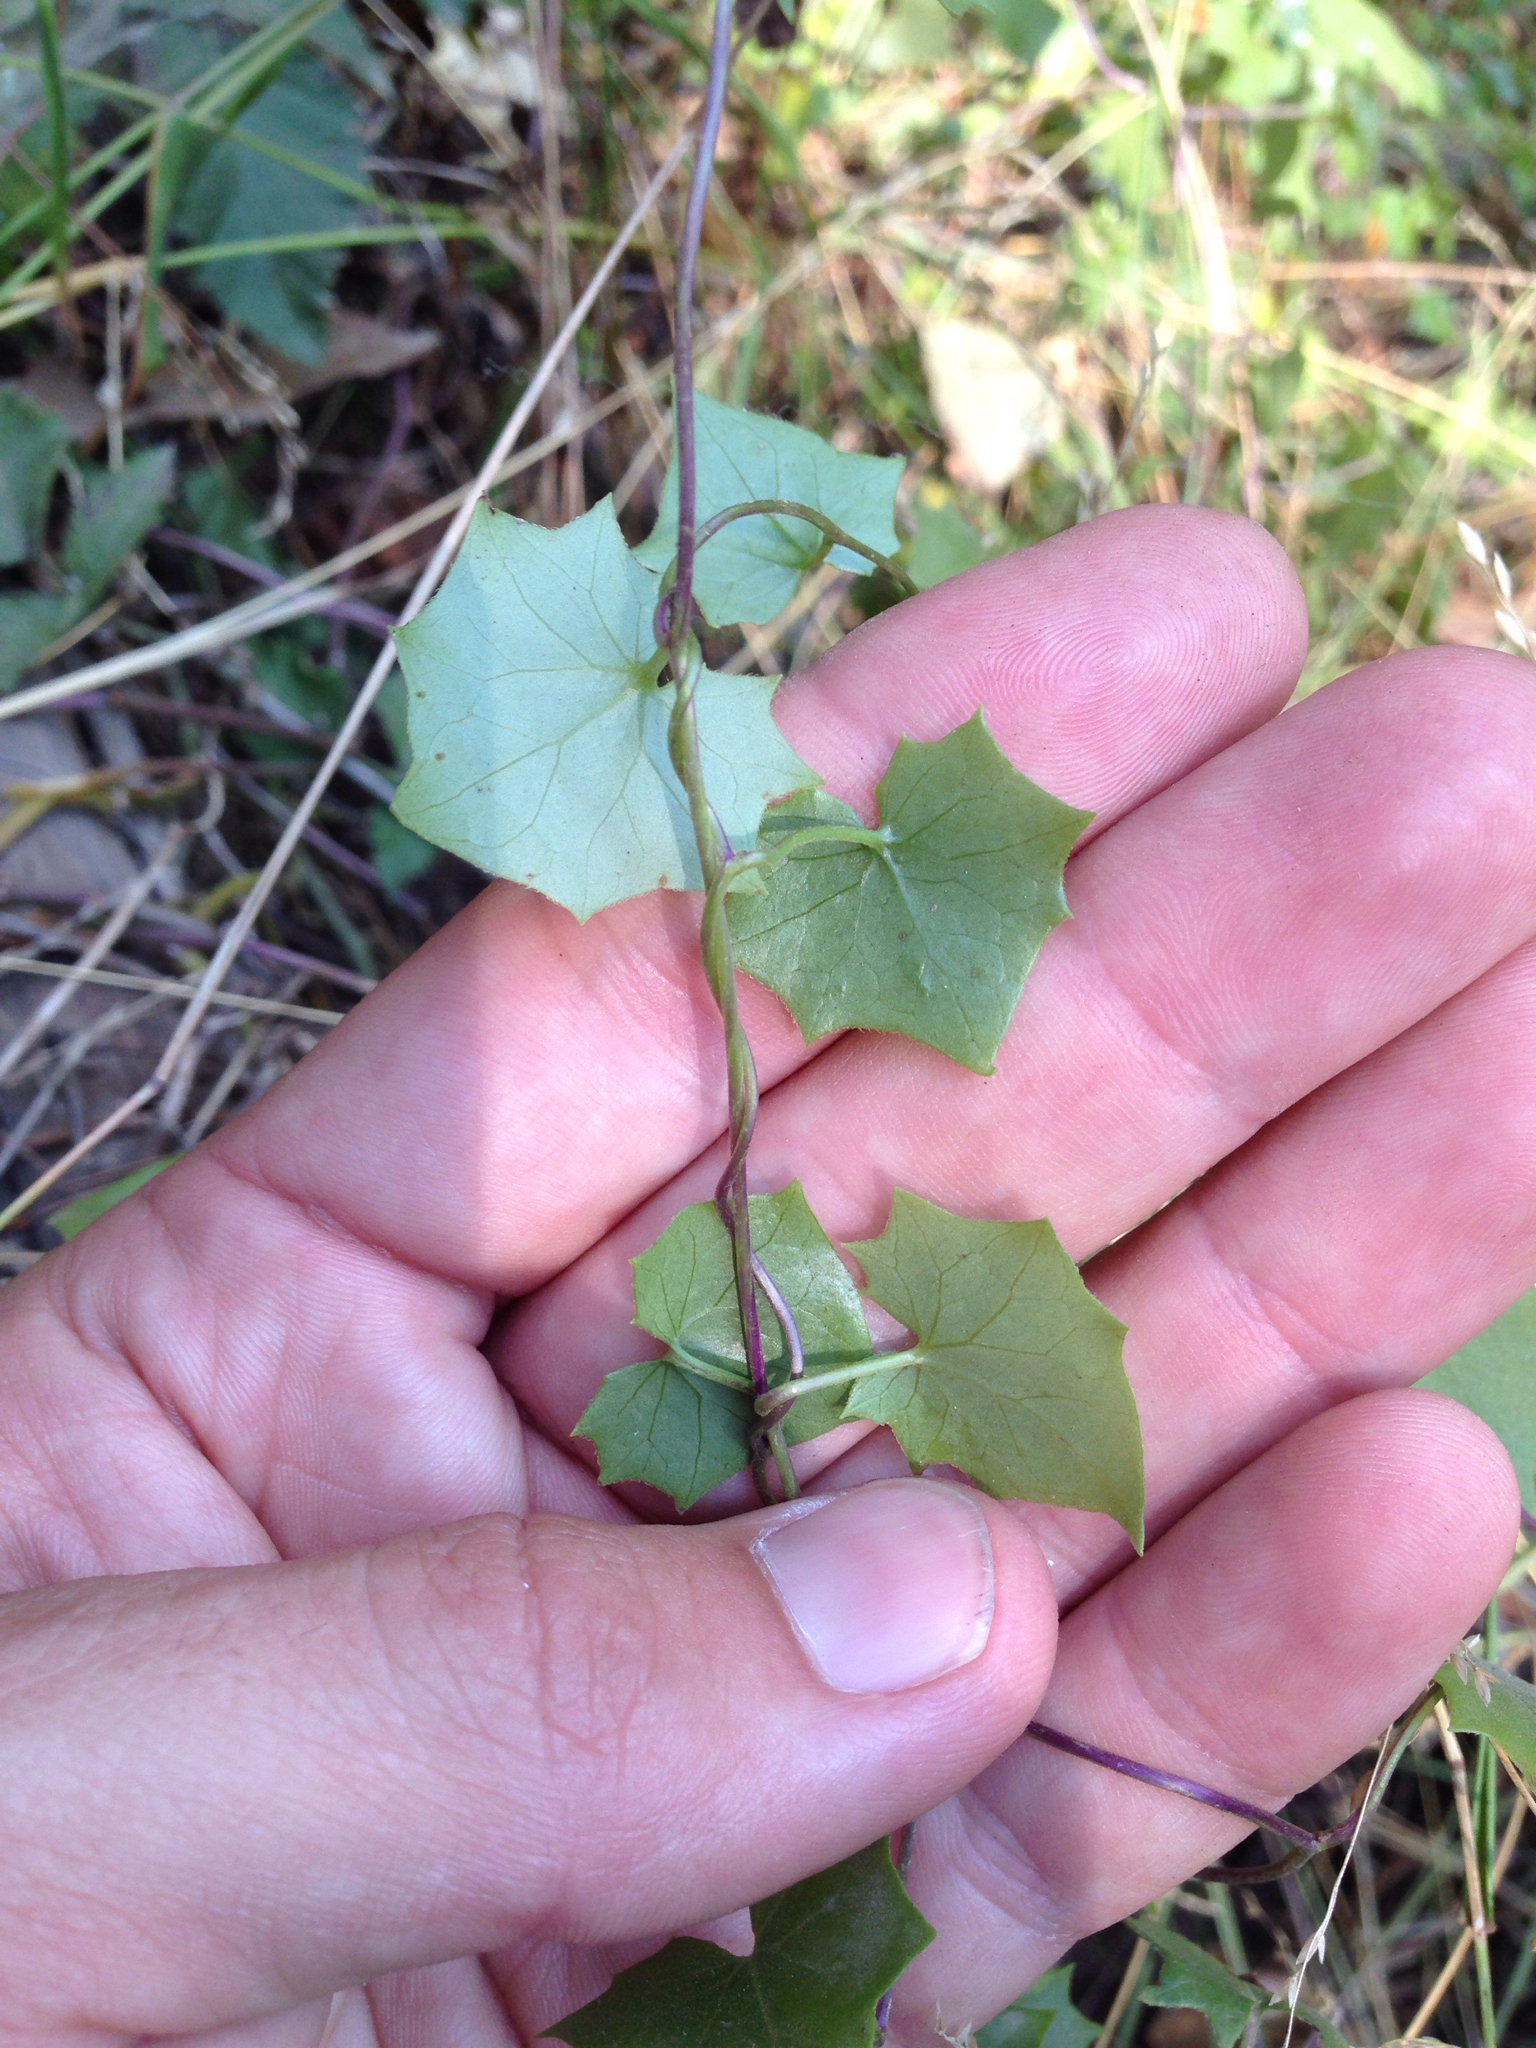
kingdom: Plantae
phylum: Tracheophyta
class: Magnoliopsida
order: Asterales
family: Asteraceae
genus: Delairea
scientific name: Delairea odorata
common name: Cape-ivy
